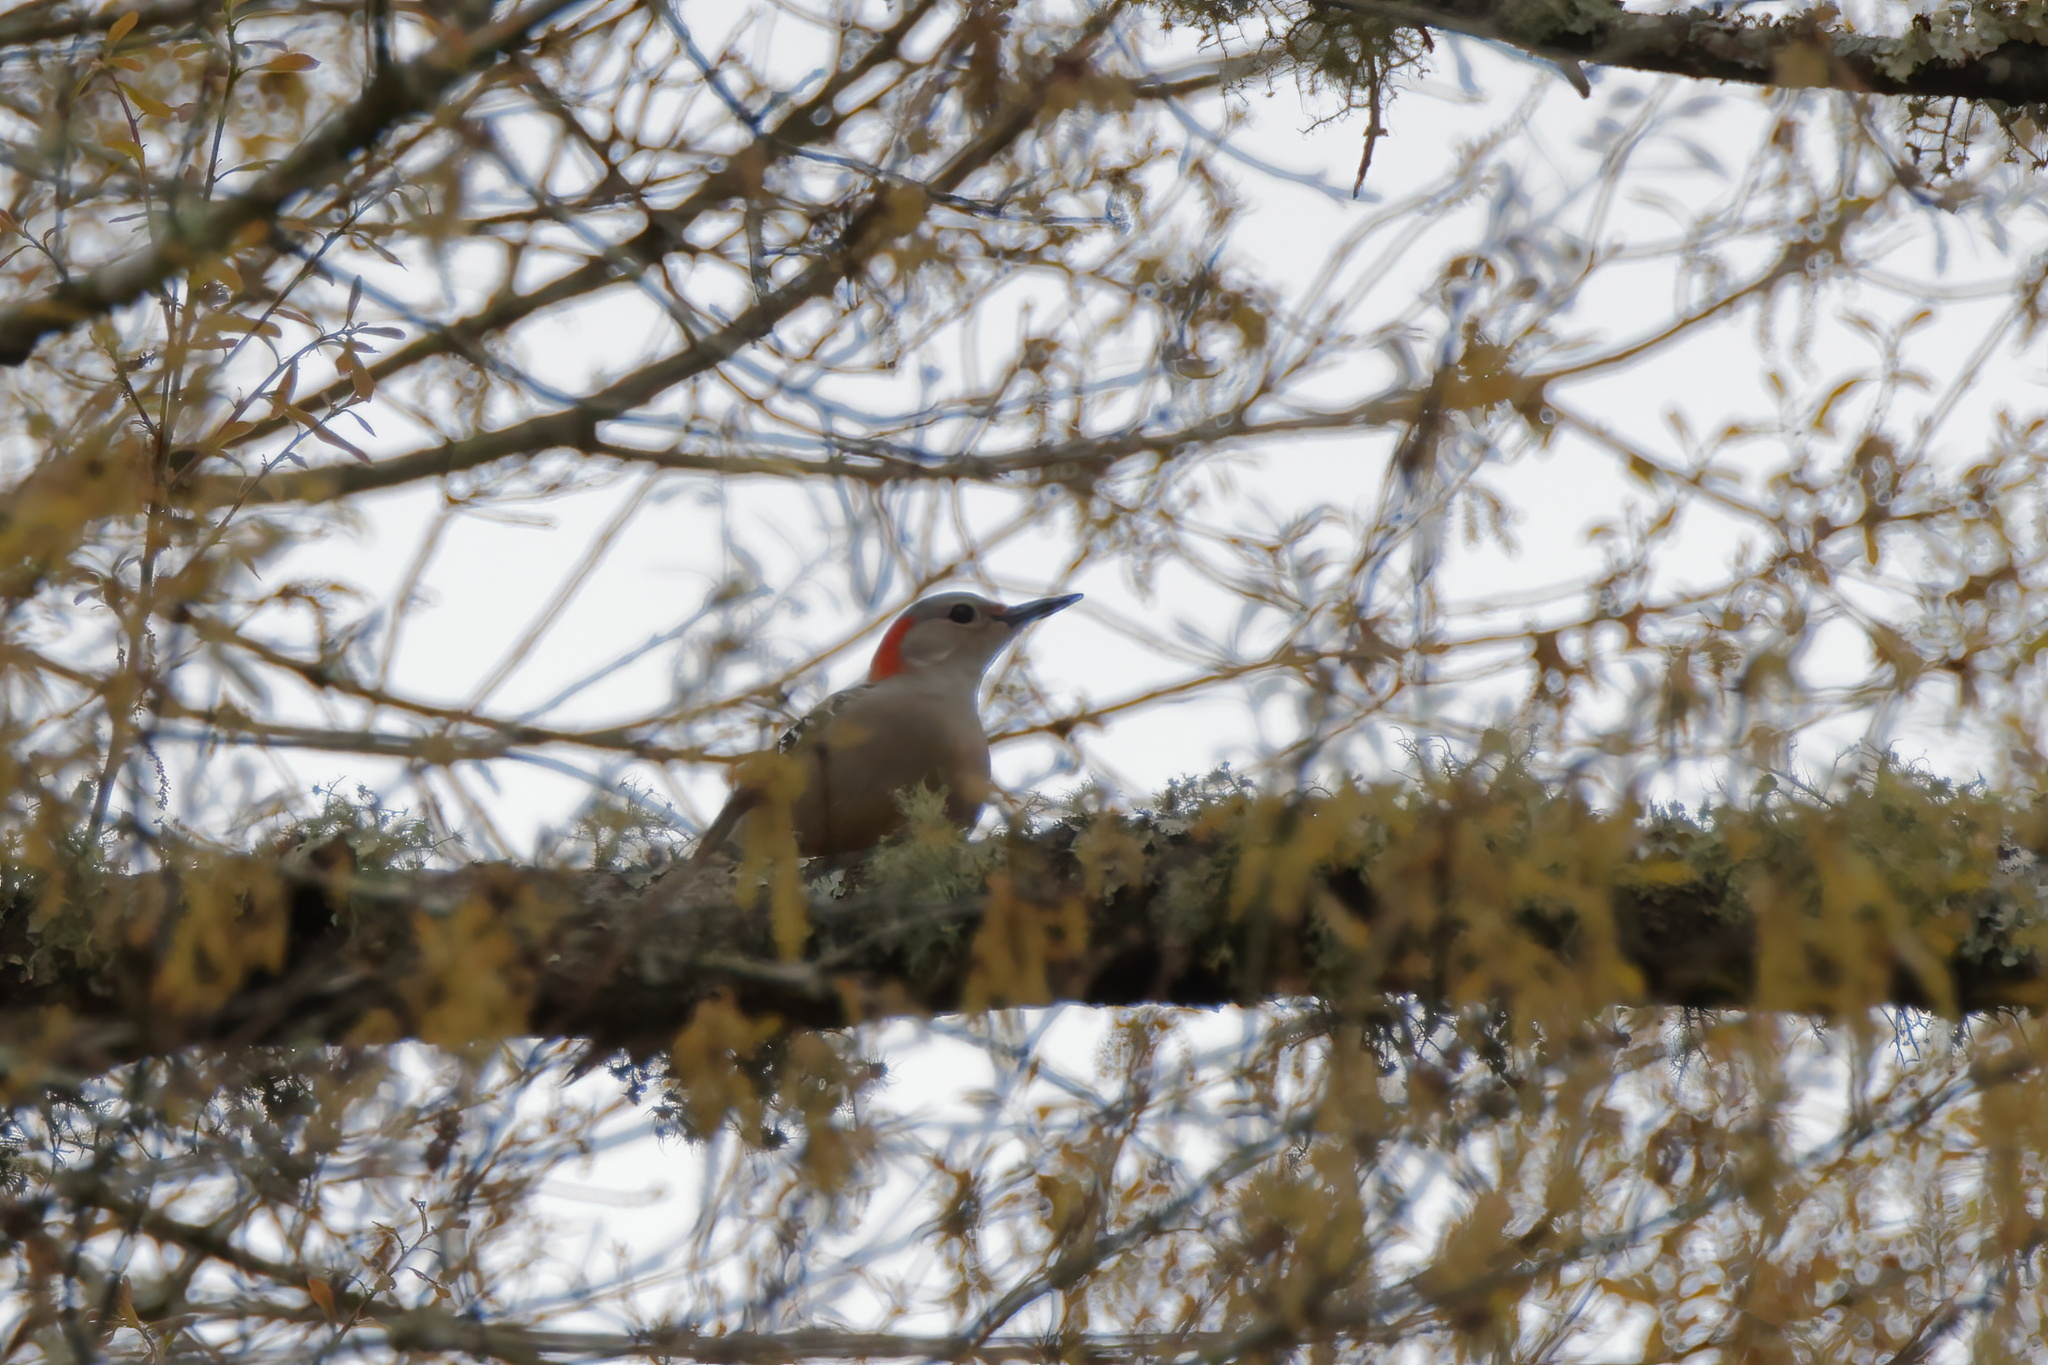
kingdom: Animalia
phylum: Chordata
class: Aves
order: Piciformes
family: Picidae
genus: Melanerpes
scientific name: Melanerpes carolinus
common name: Red-bellied woodpecker
